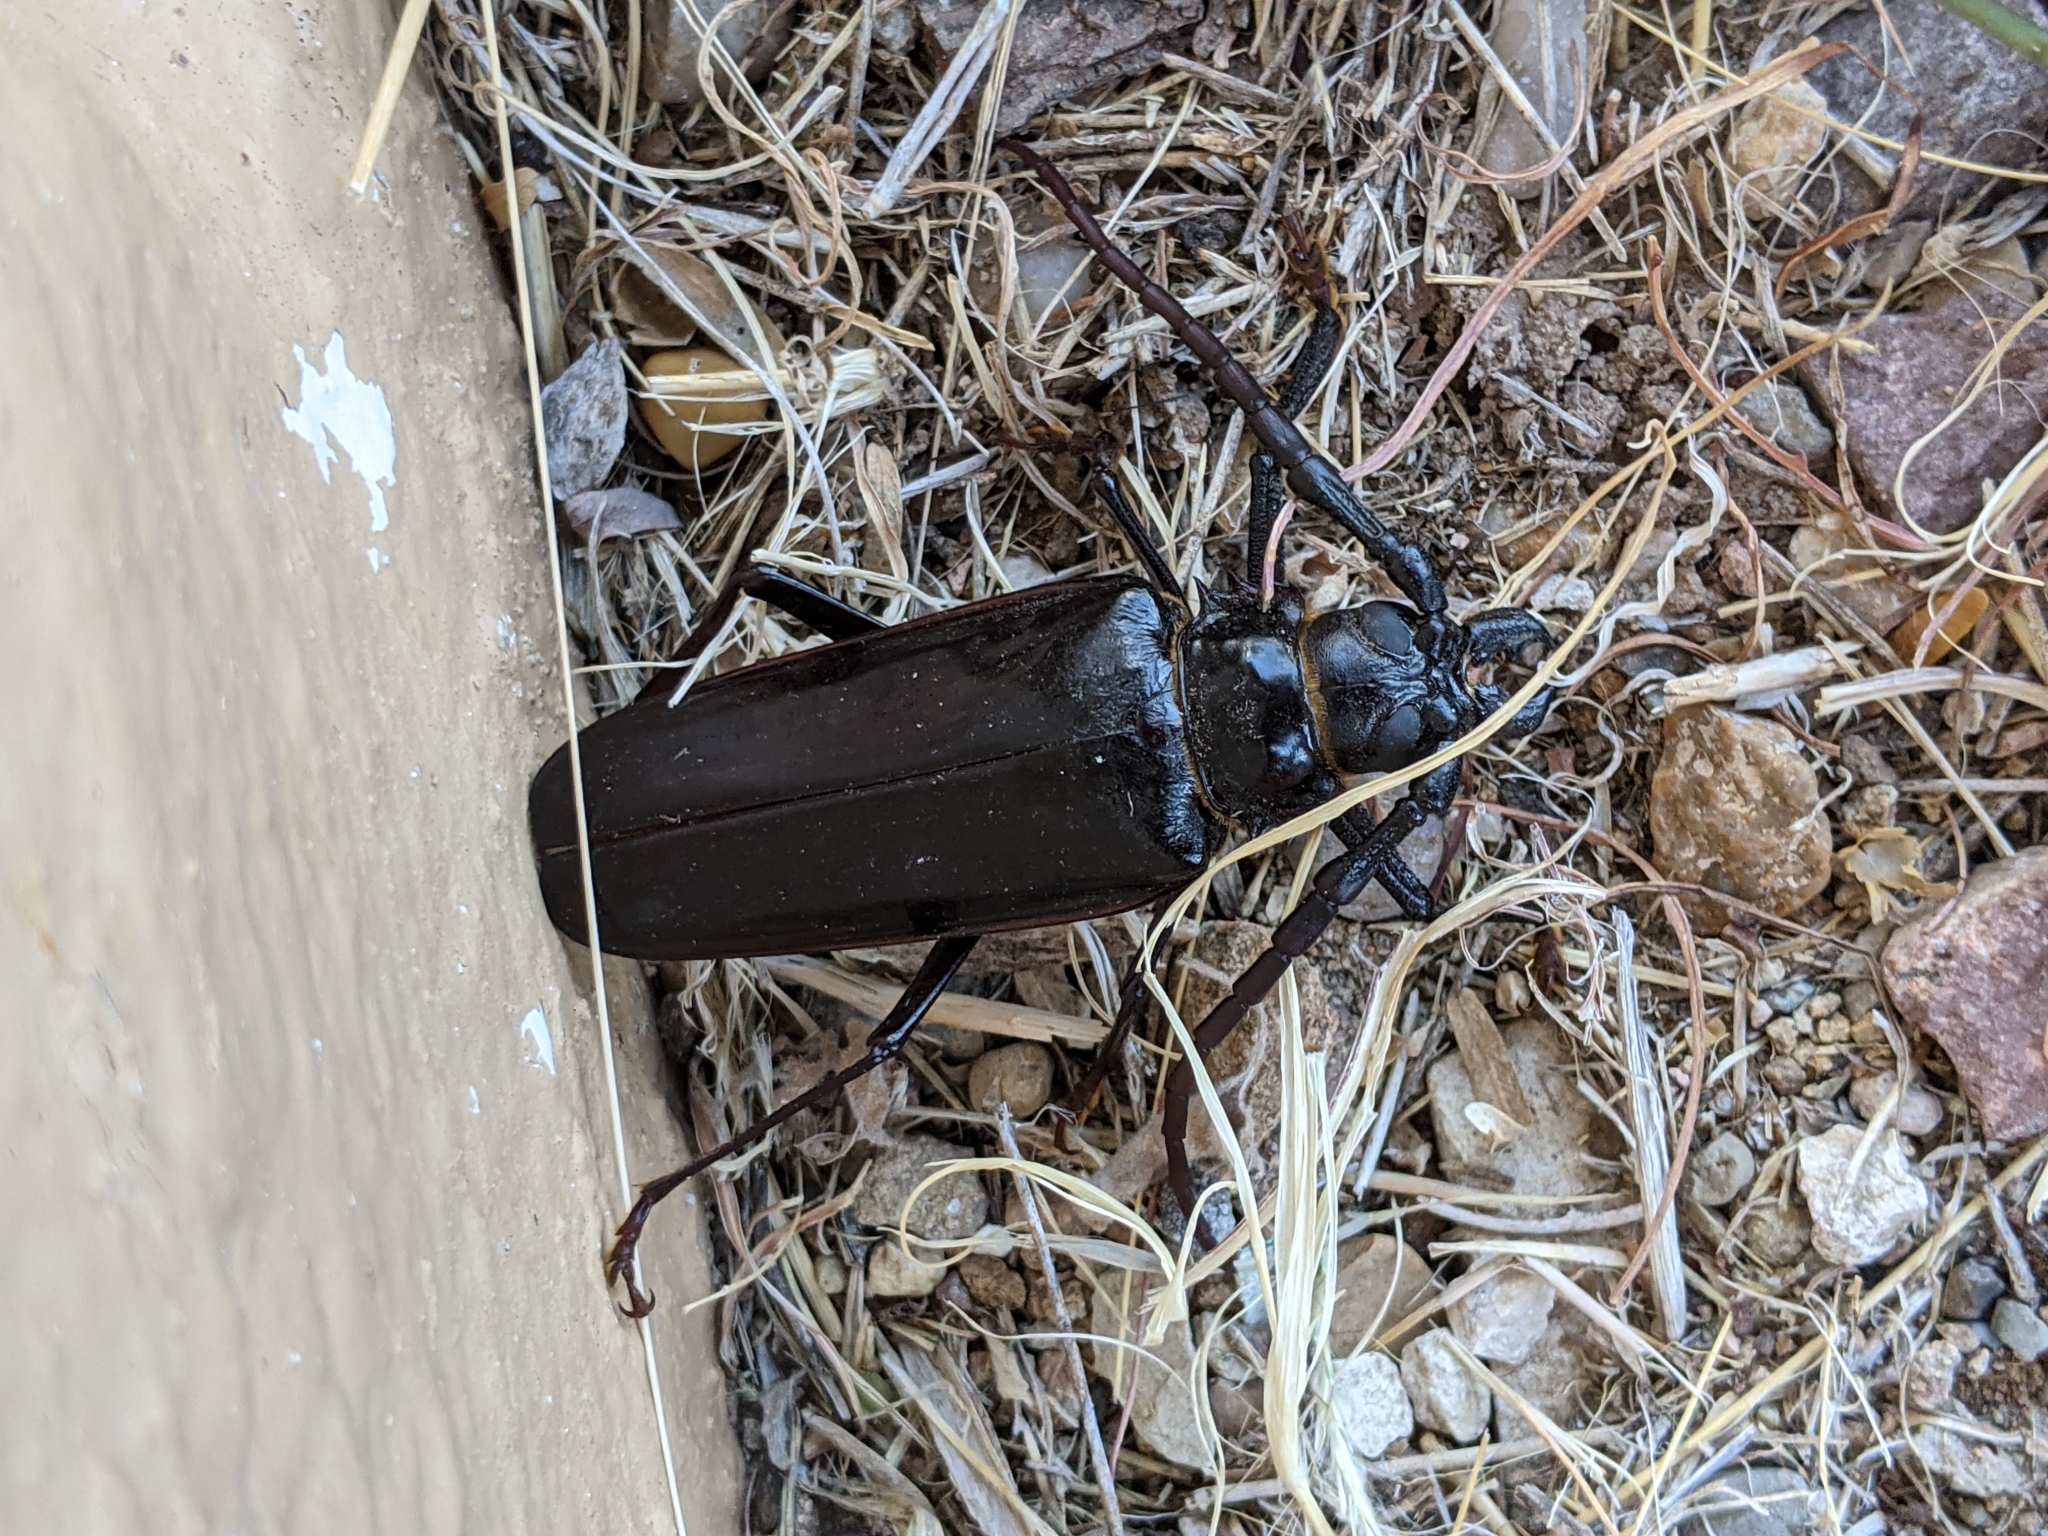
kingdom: Animalia
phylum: Arthropoda
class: Insecta
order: Coleoptera
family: Cerambycidae
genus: Derobrachus
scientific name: Derobrachus hovorei
